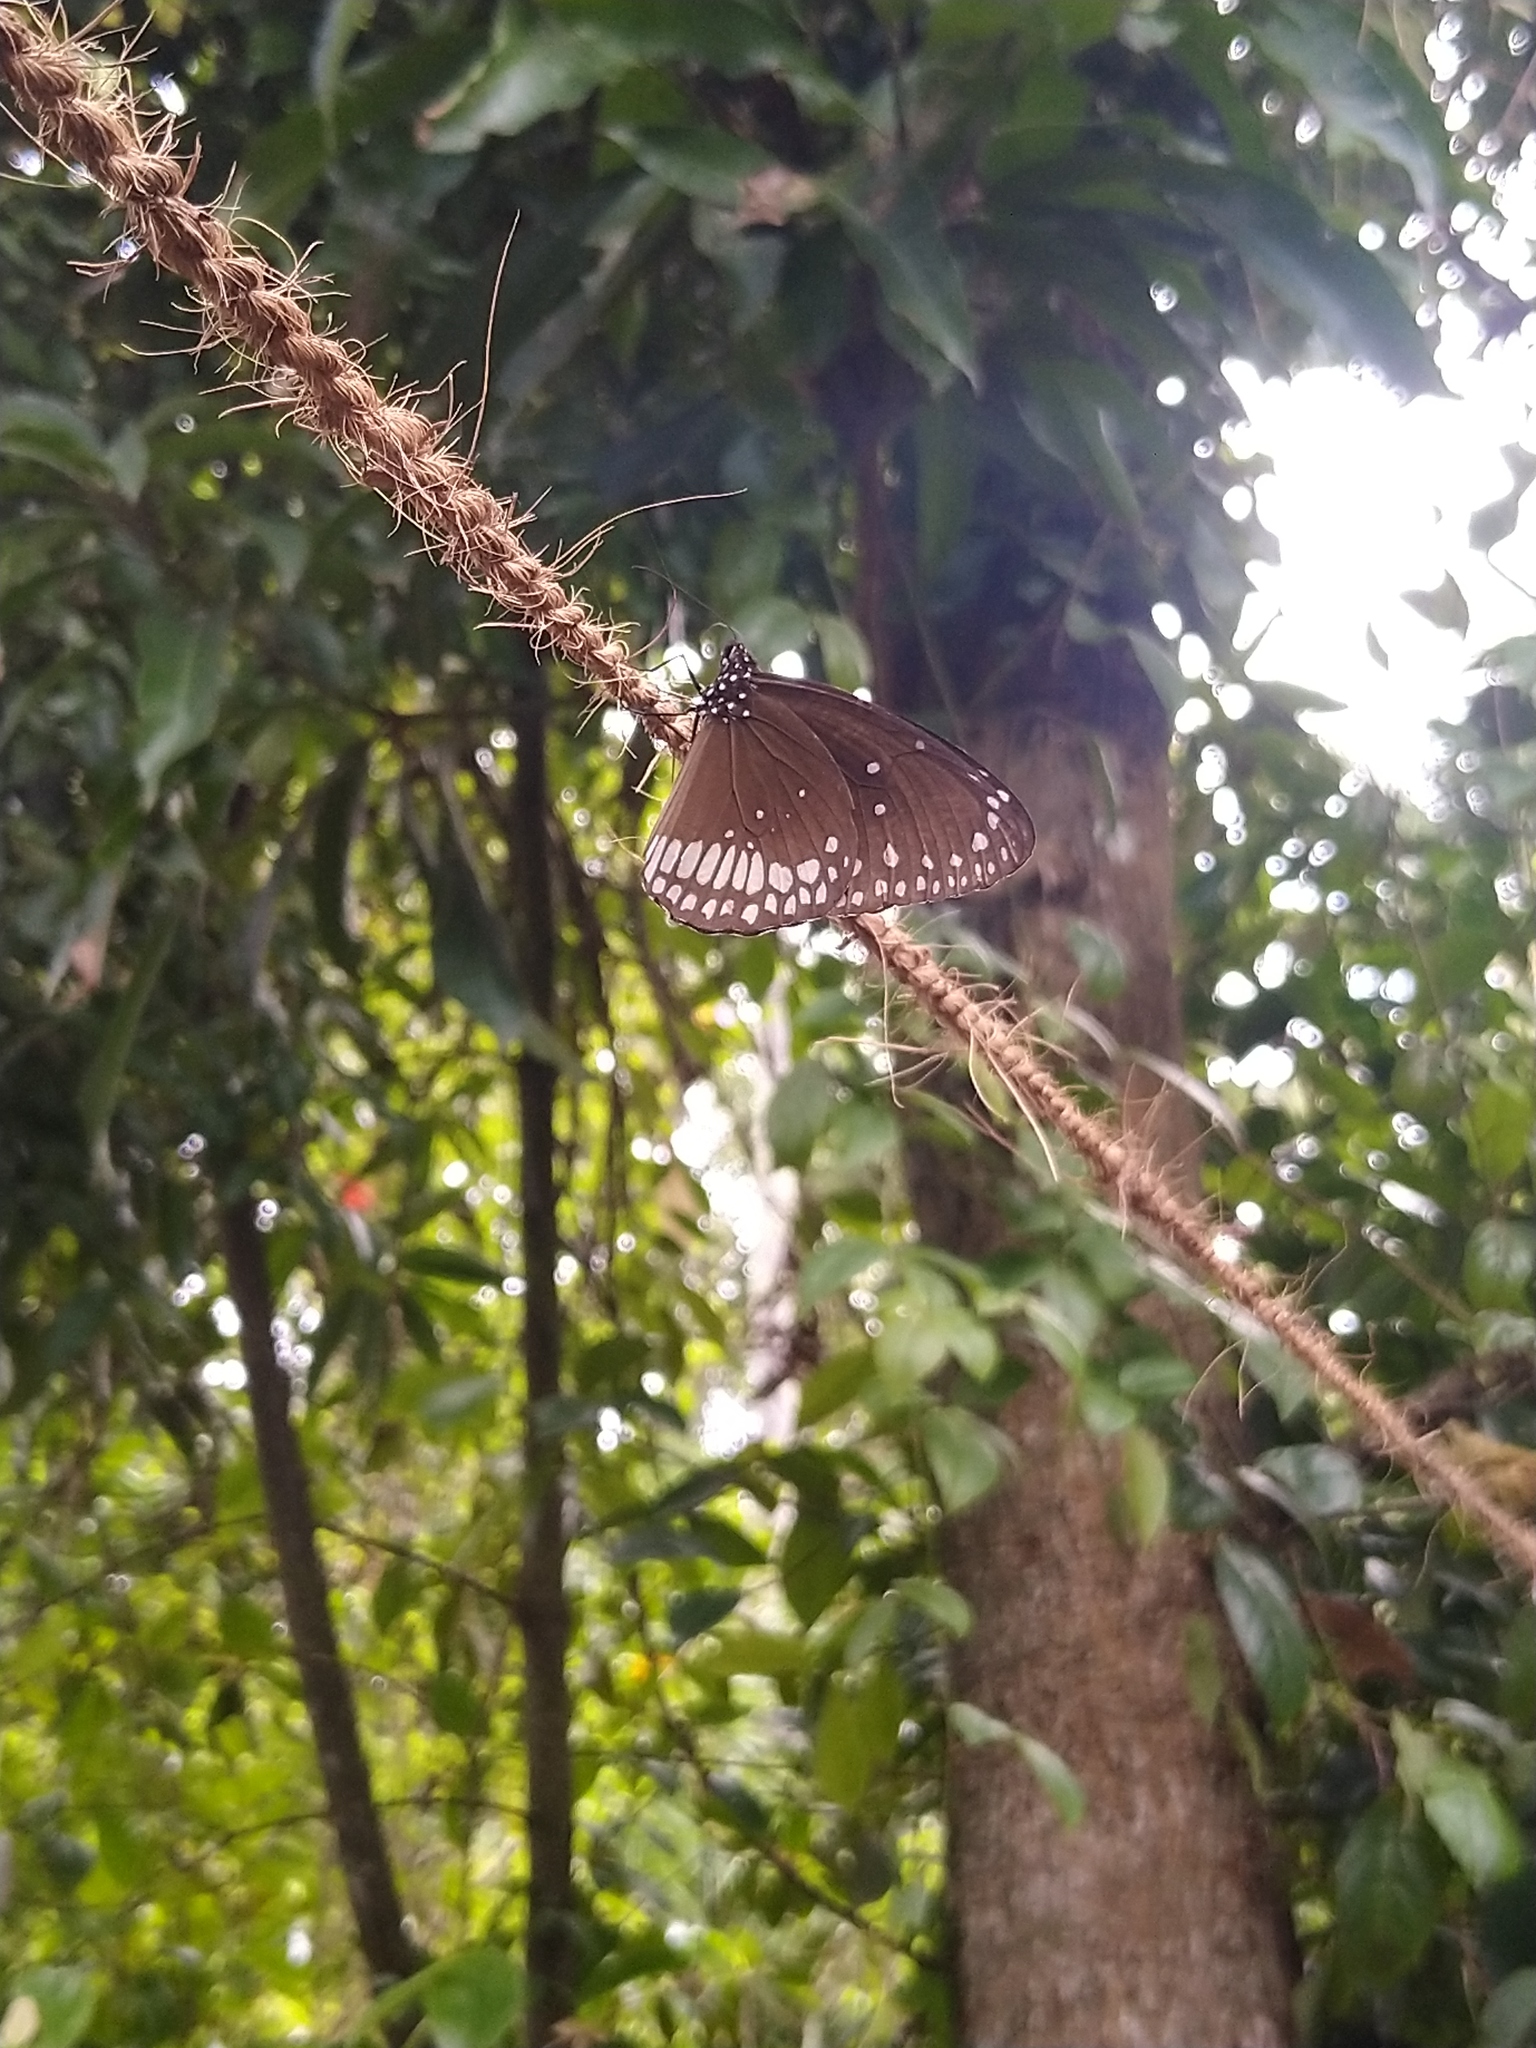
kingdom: Animalia
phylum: Arthropoda
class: Insecta
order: Lepidoptera
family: Nymphalidae
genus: Euploea
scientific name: Euploea core
